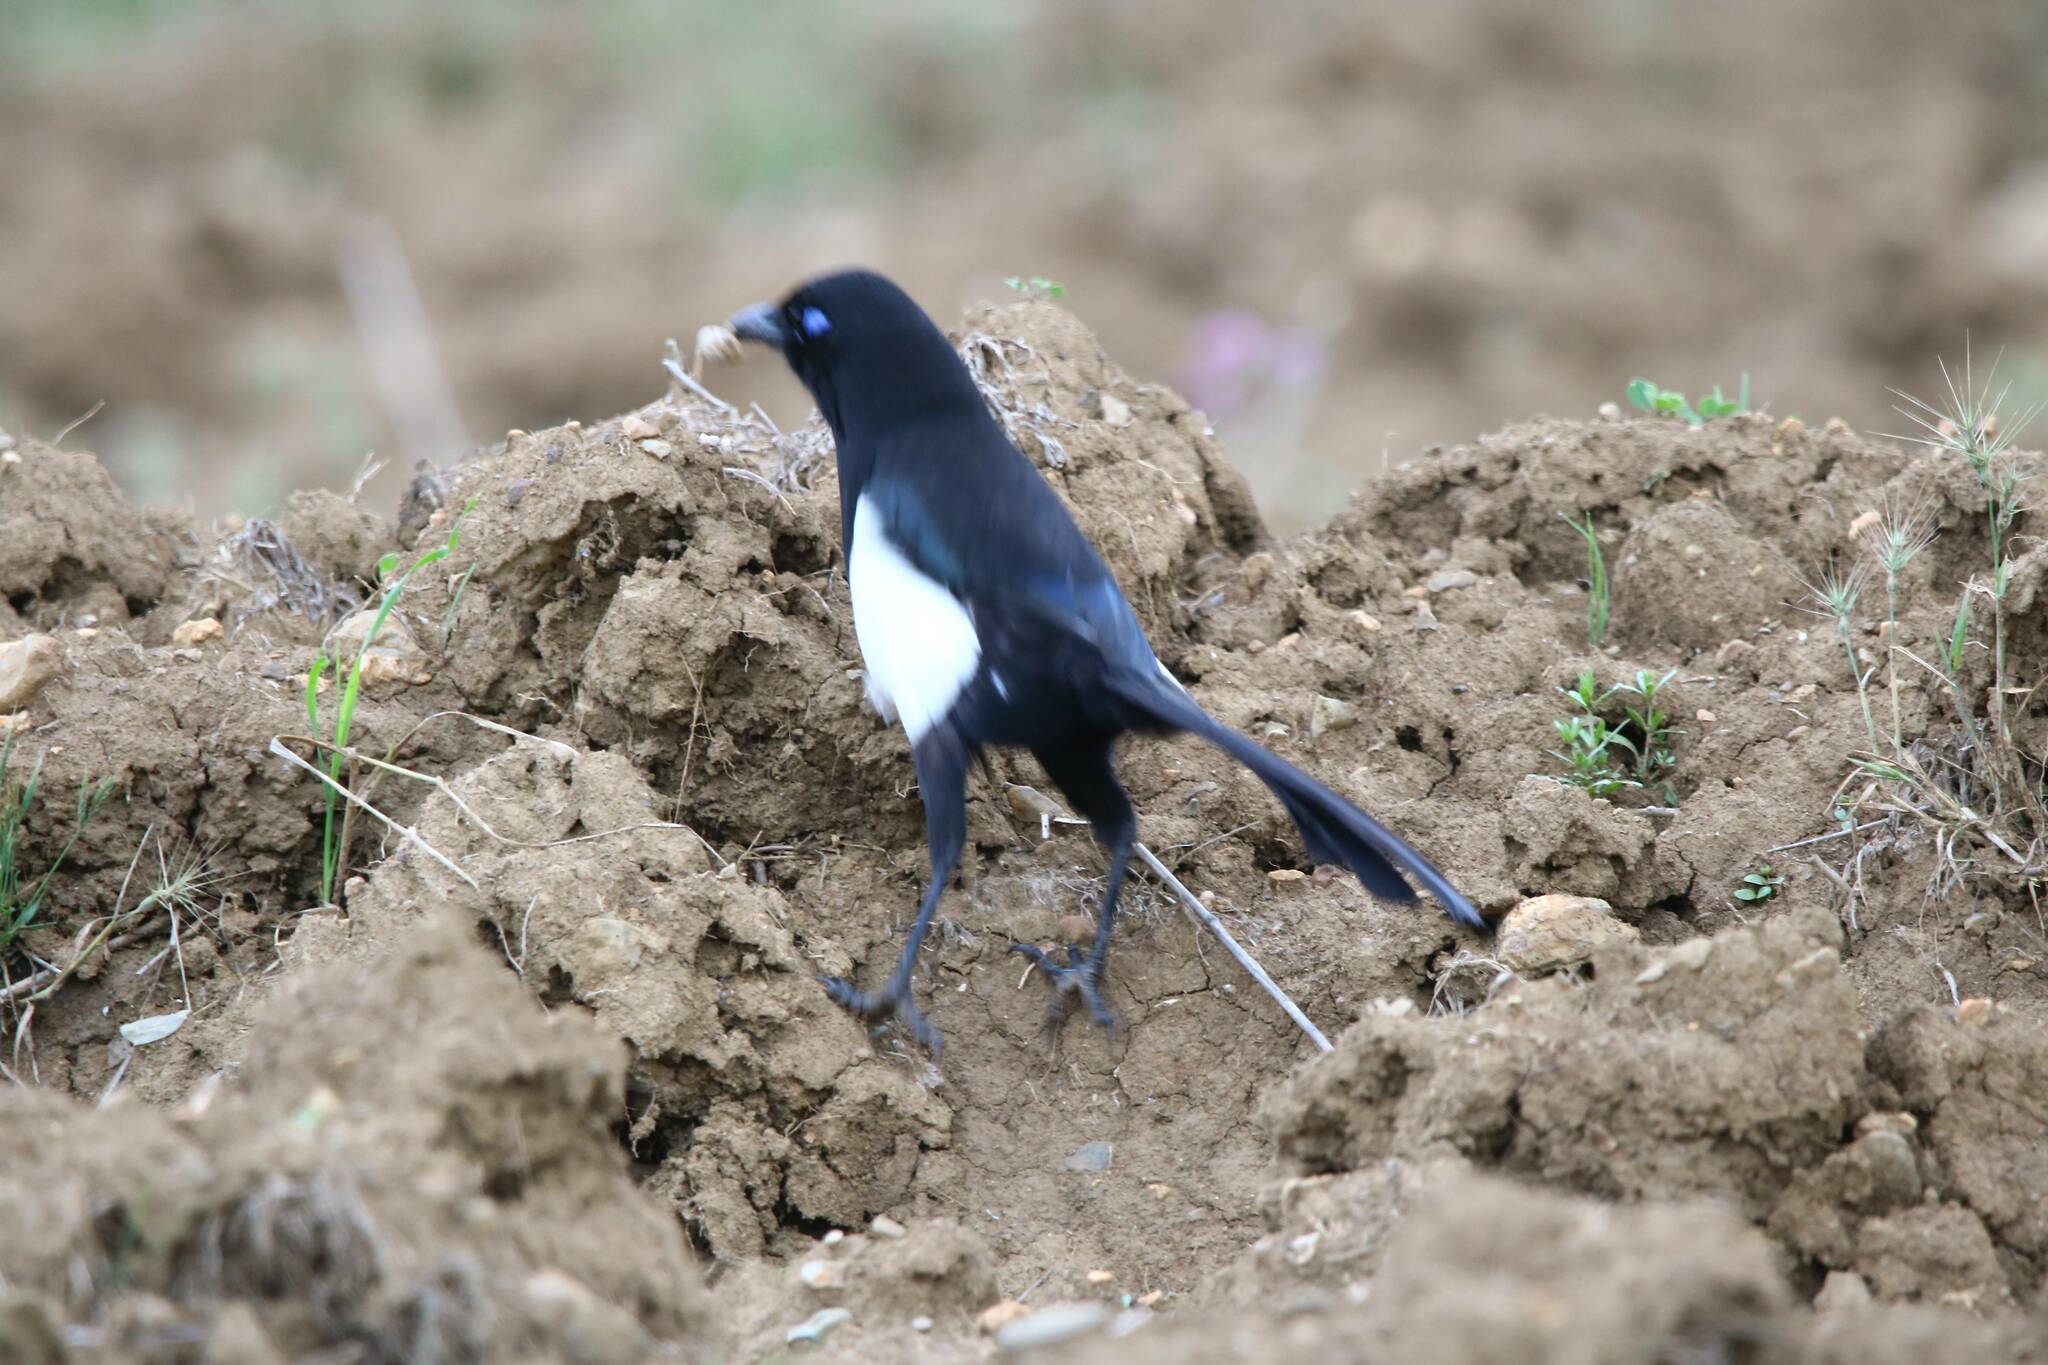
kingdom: Animalia
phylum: Chordata
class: Aves
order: Passeriformes
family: Corvidae
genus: Pica
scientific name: Pica mauritanica
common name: Maghreb magpie
